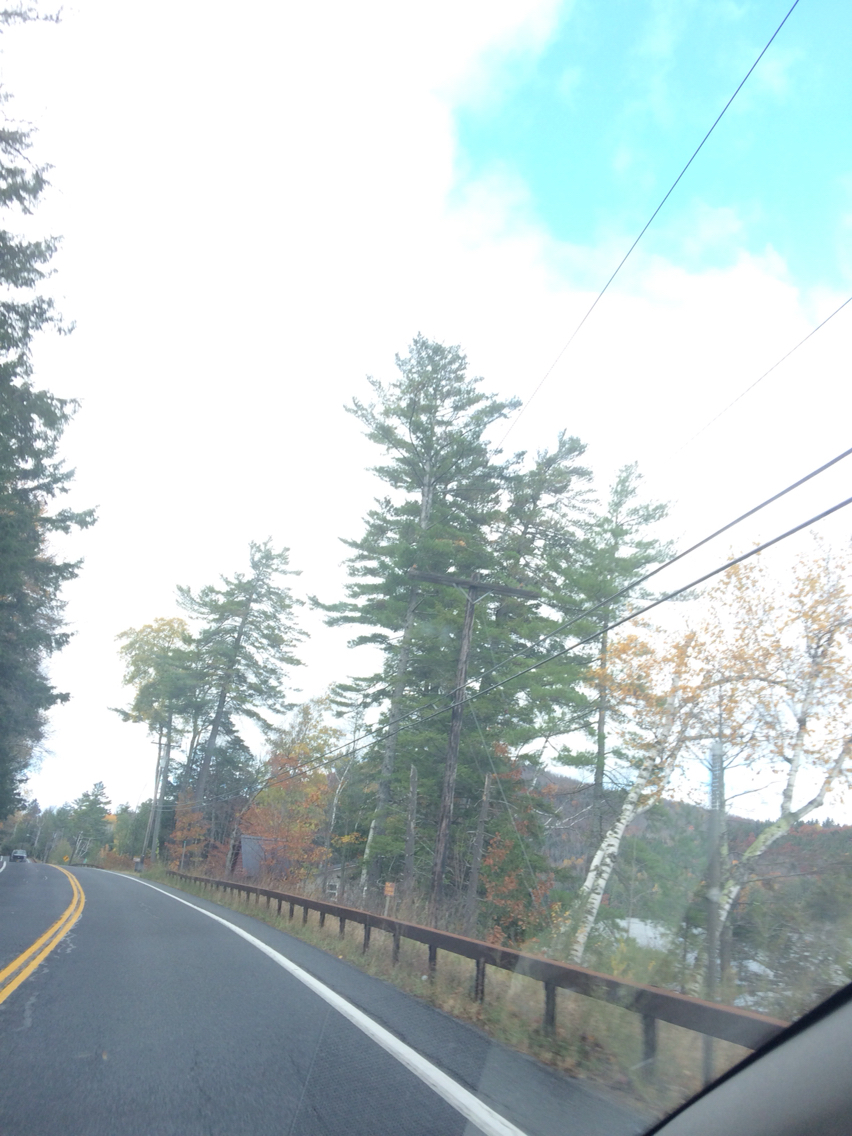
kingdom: Plantae
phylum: Tracheophyta
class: Pinopsida
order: Pinales
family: Pinaceae
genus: Pinus
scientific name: Pinus strobus
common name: Weymouth pine
